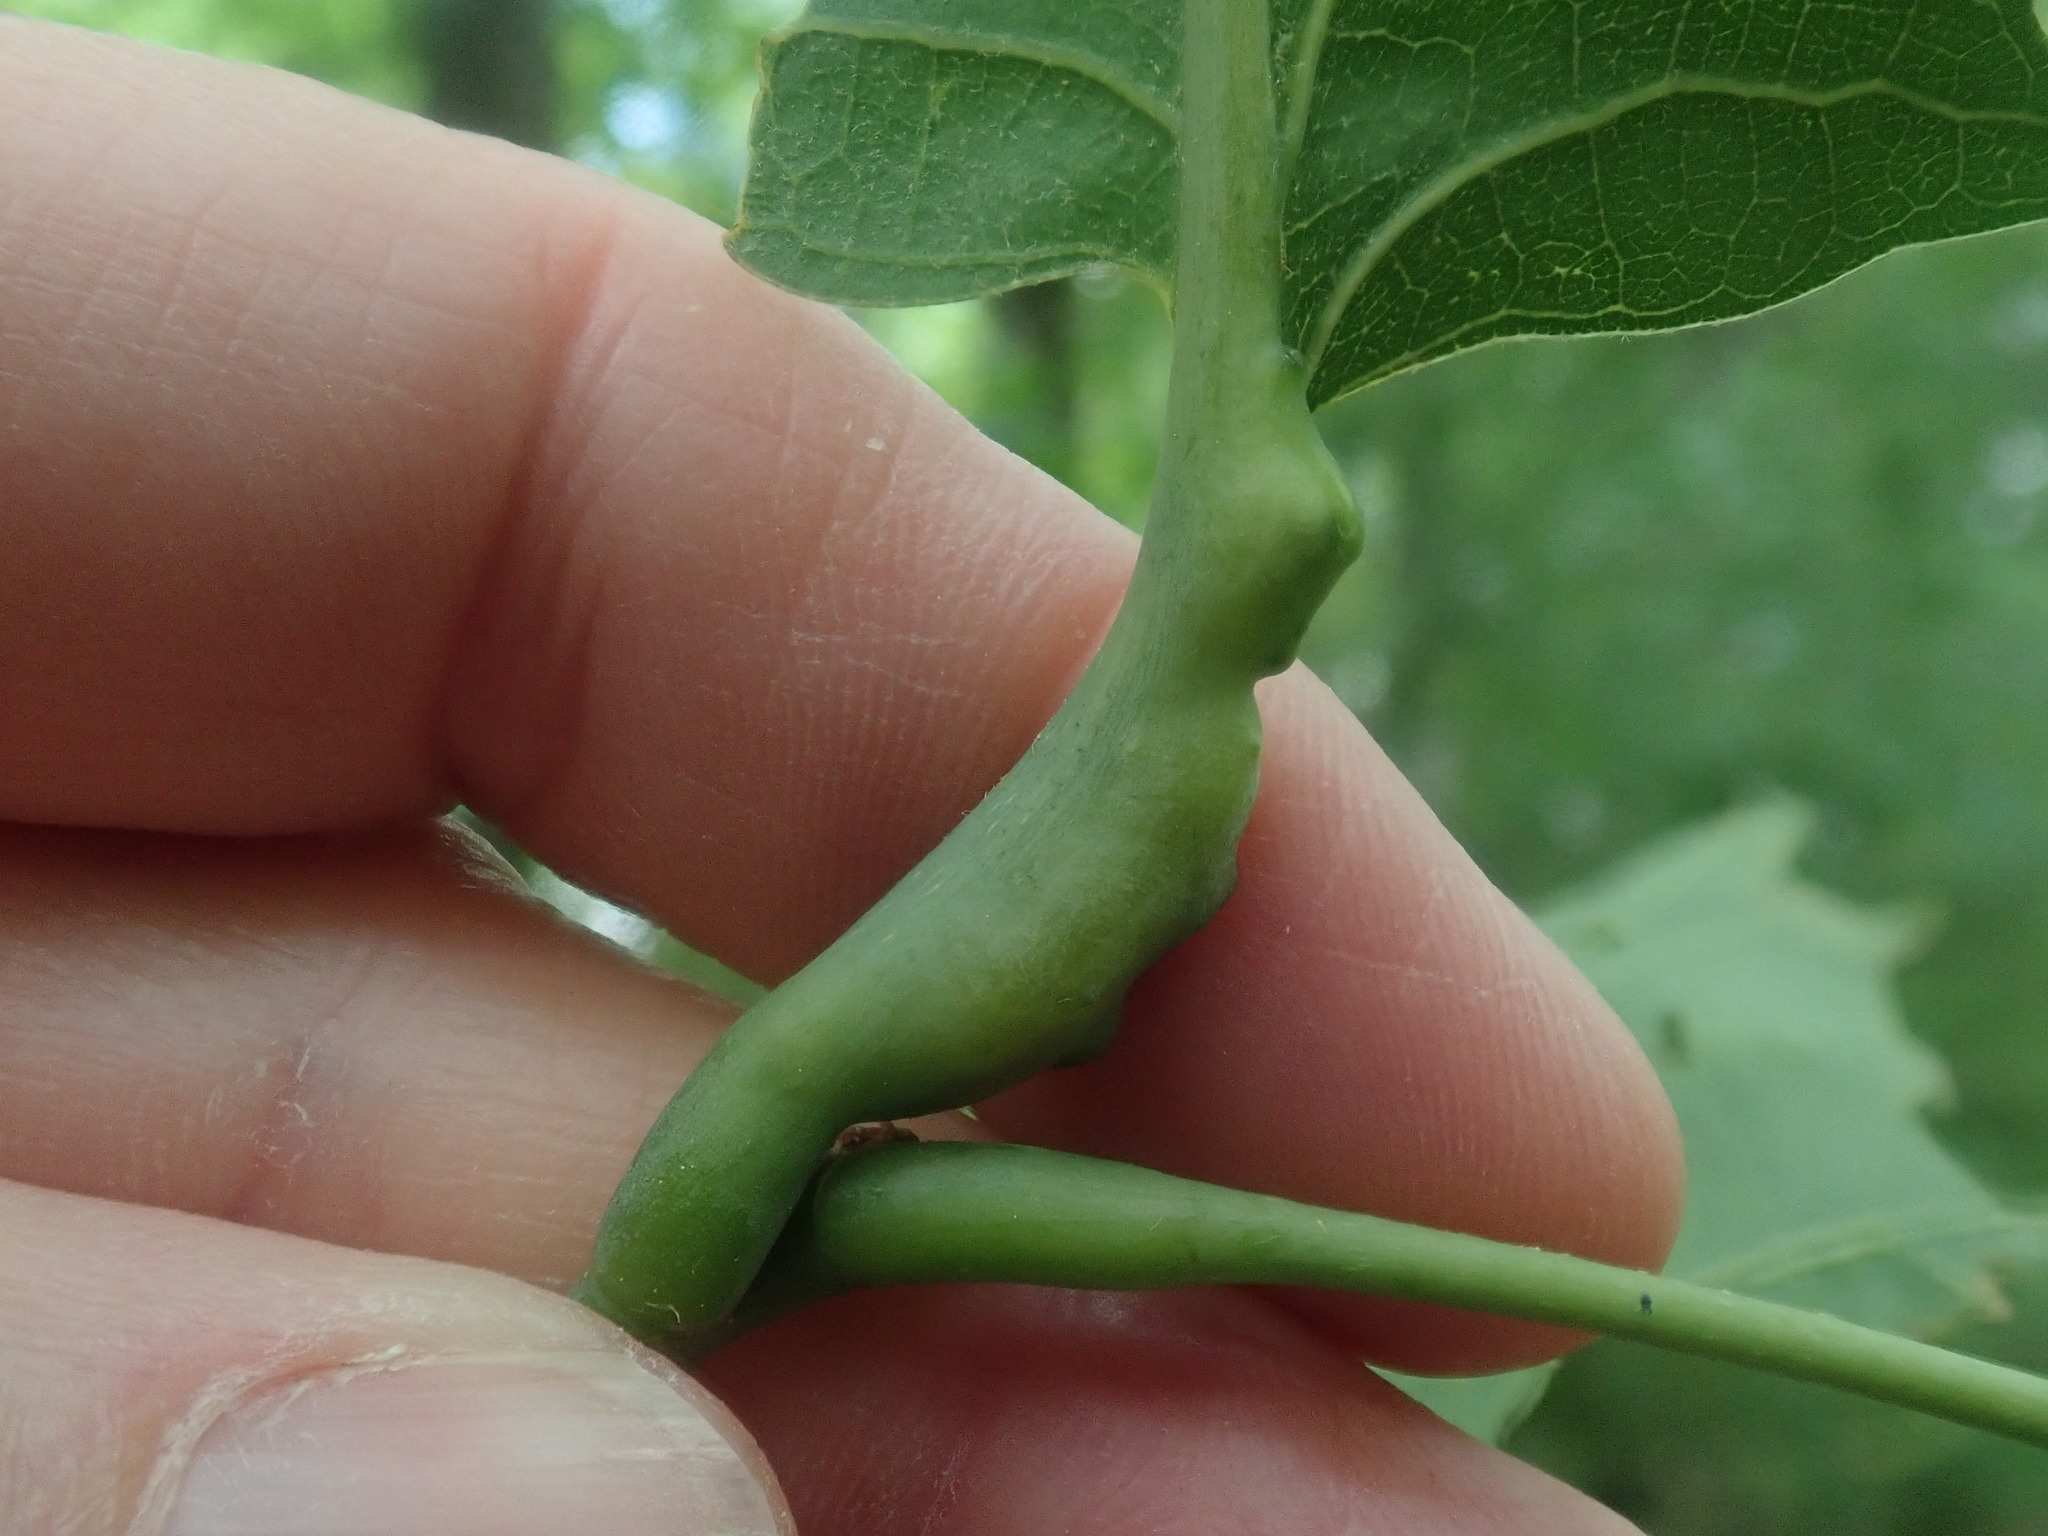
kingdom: Animalia
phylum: Arthropoda
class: Insecta
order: Hymenoptera
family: Cynipidae
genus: Melikaiella
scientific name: Melikaiella tumifica
